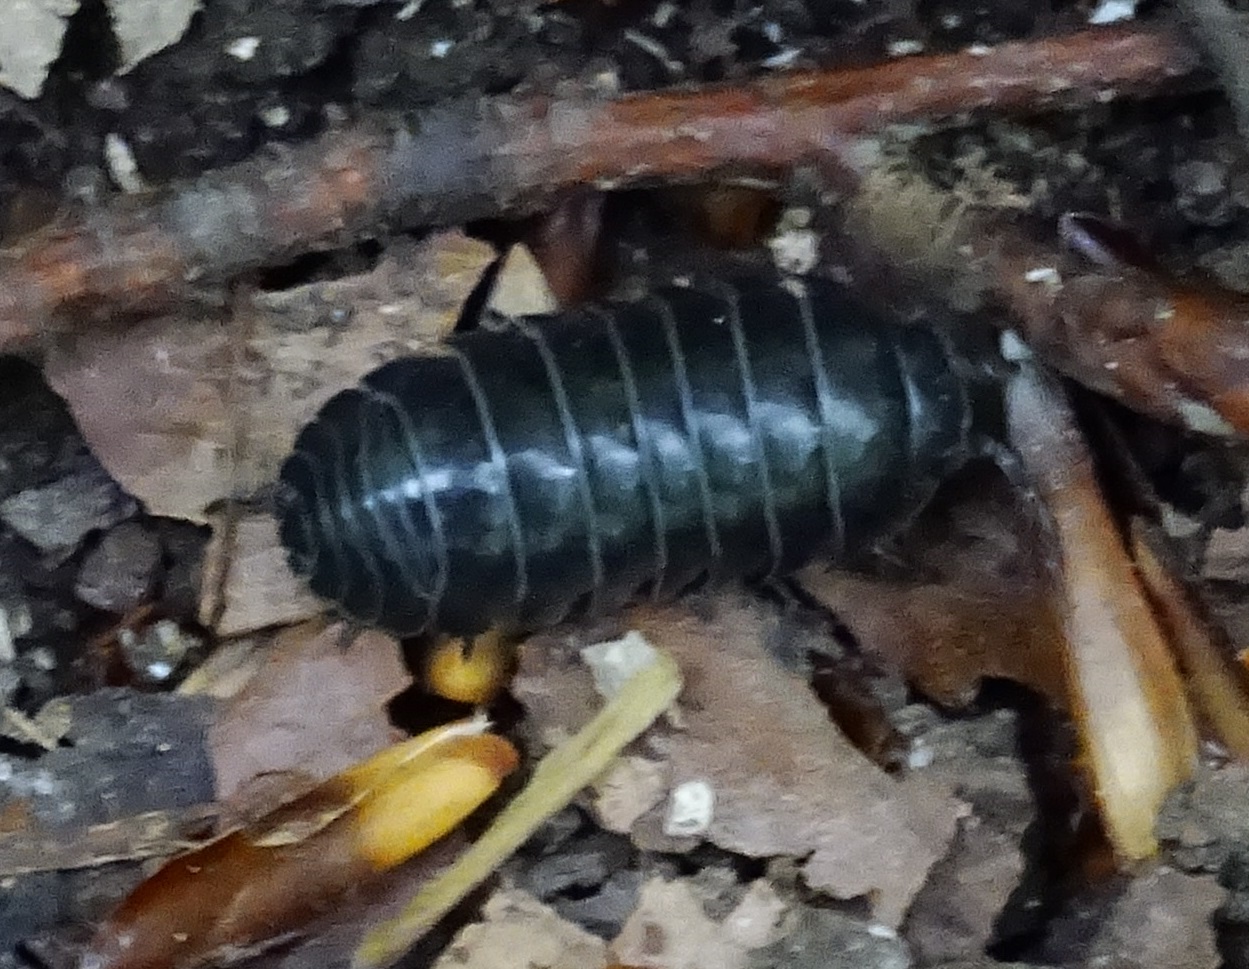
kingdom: Animalia
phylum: Arthropoda
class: Malacostraca
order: Isopoda
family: Armadillidiidae
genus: Armadillidium
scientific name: Armadillidium vulgare
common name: Common pill woodlouse
